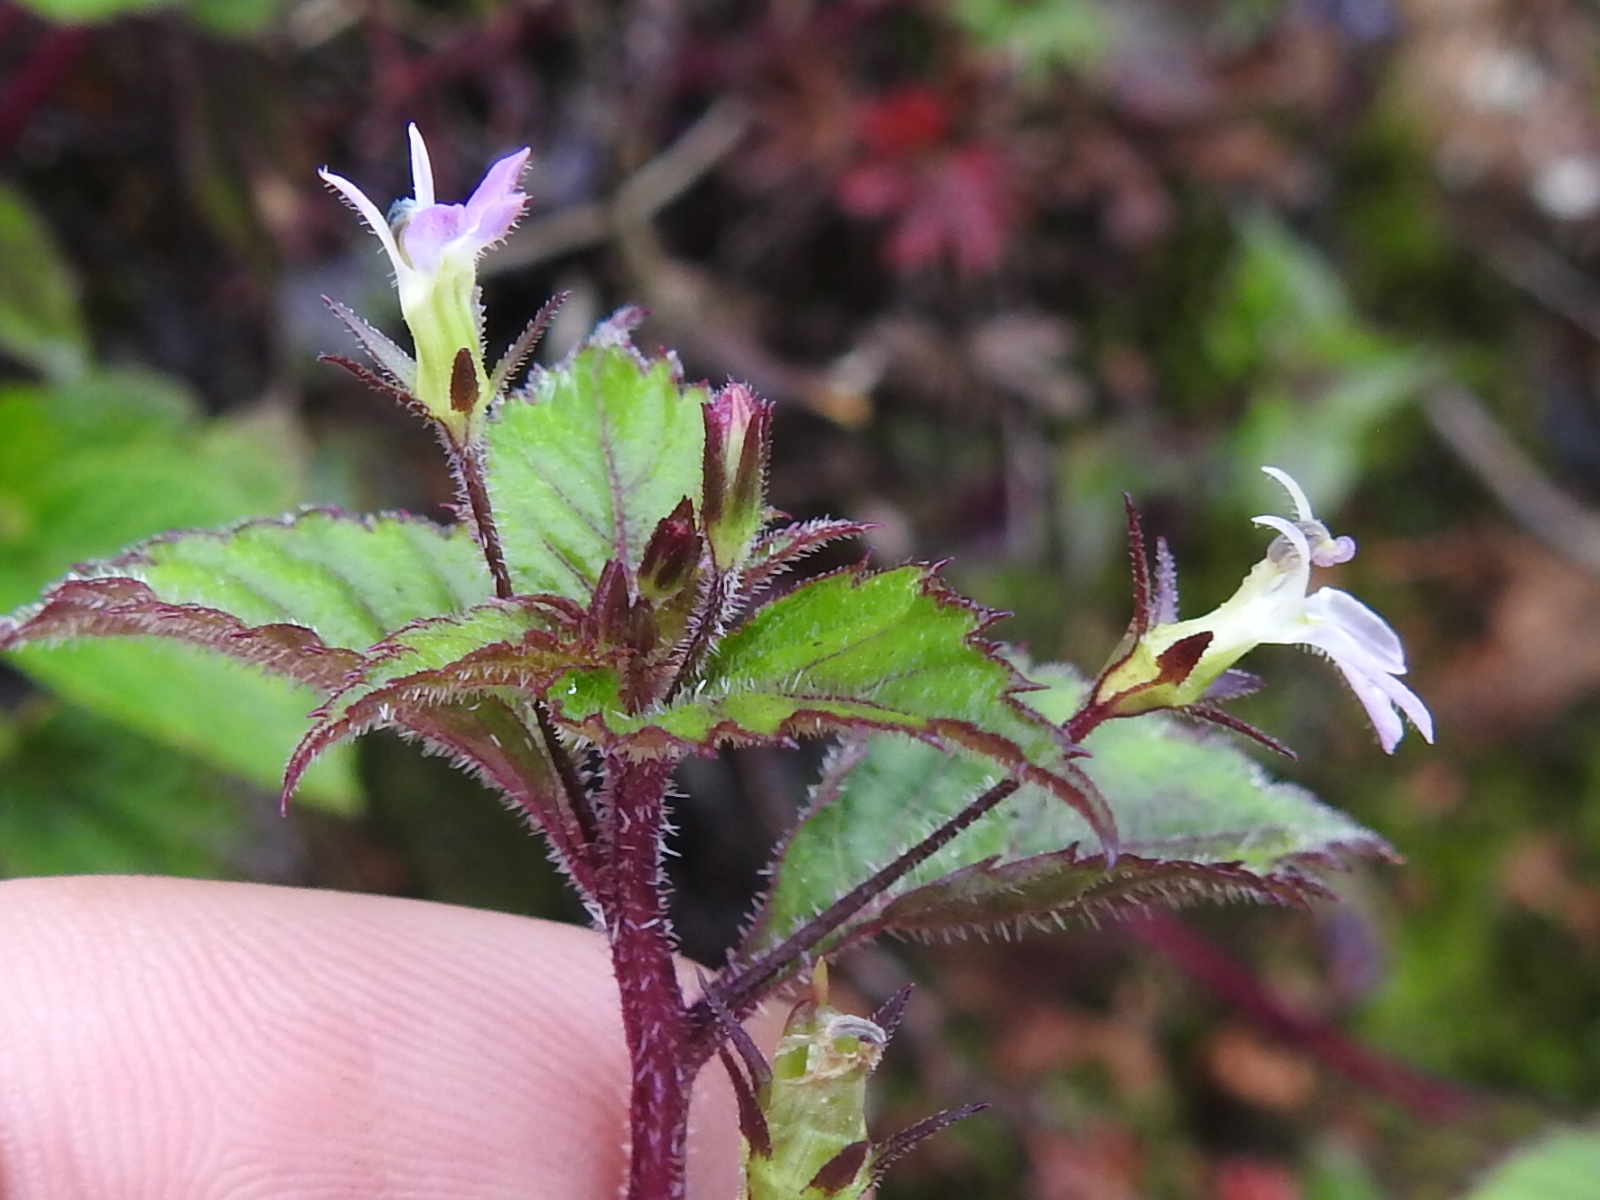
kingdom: Plantae
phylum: Tracheophyta
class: Magnoliopsida
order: Asterales
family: Campanulaceae
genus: Lobelia
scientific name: Lobelia longicaulis
